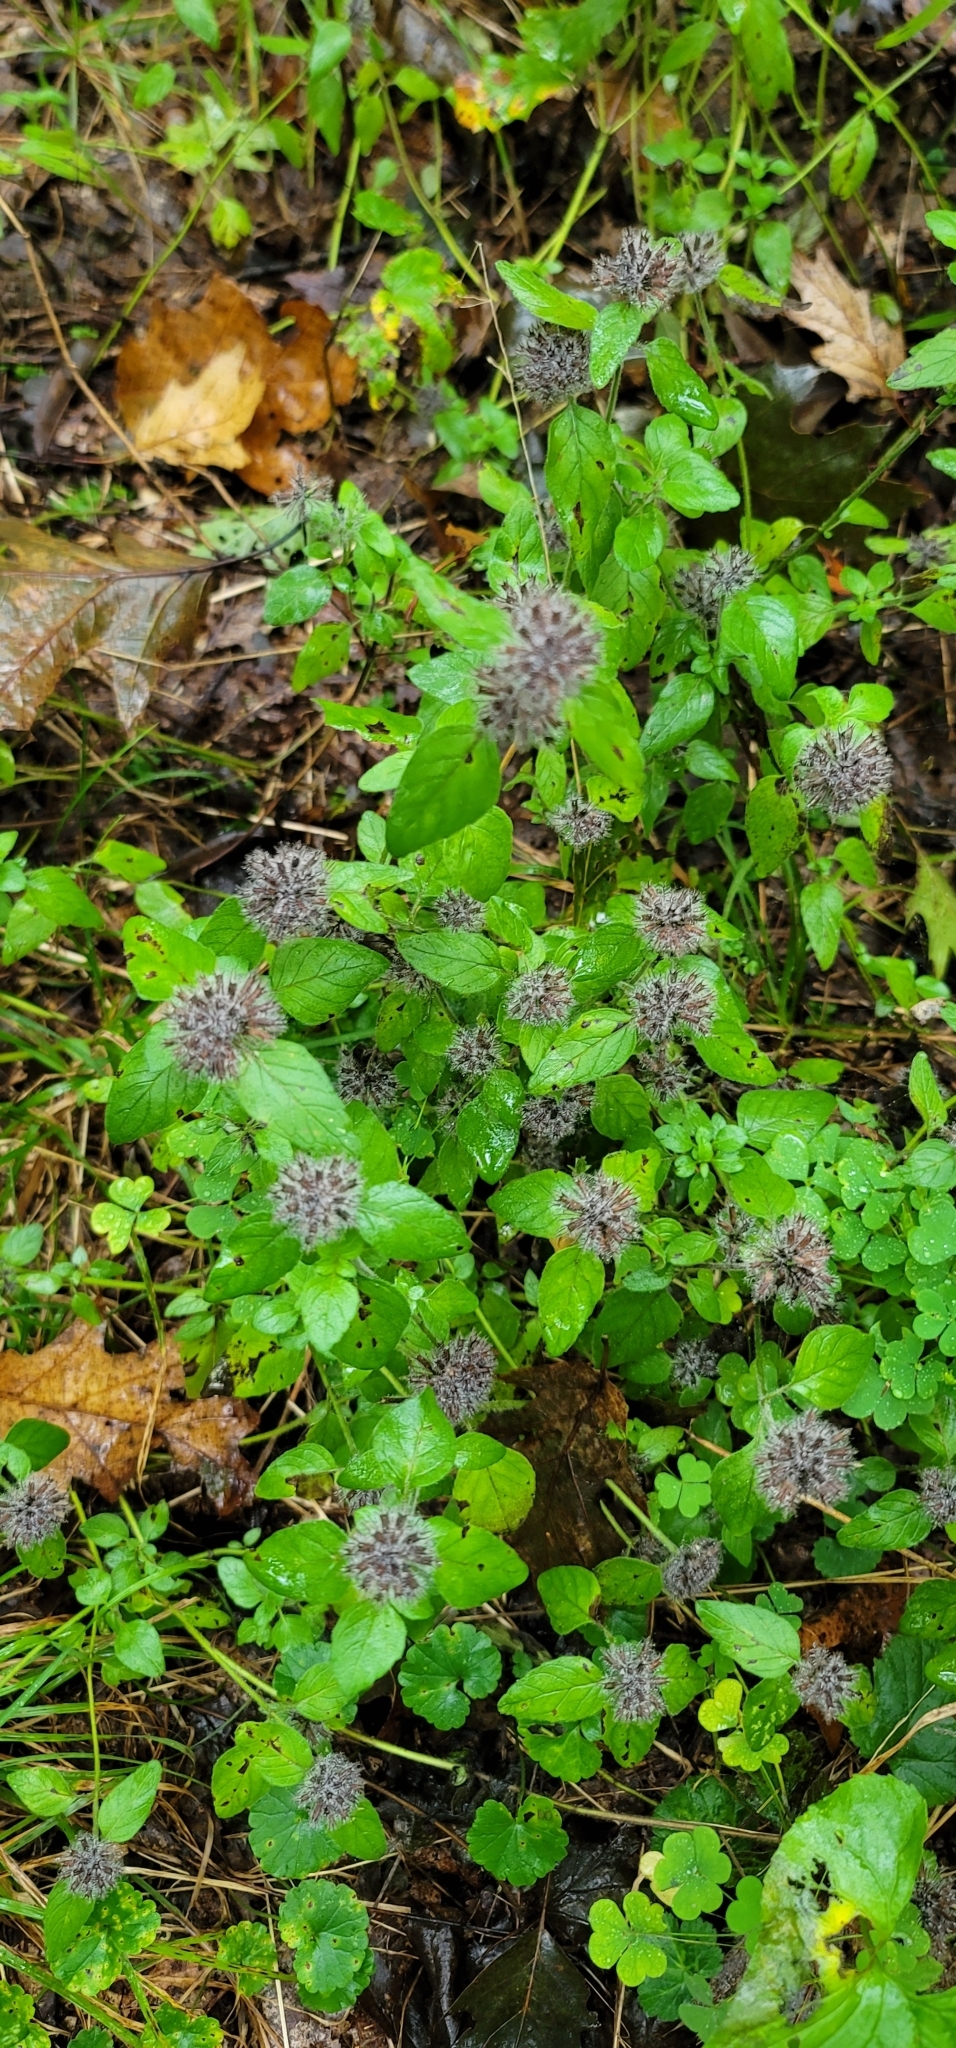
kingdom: Plantae
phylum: Tracheophyta
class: Magnoliopsida
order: Lamiales
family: Lamiaceae
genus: Clinopodium
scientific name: Clinopodium vulgare
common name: Wild basil
